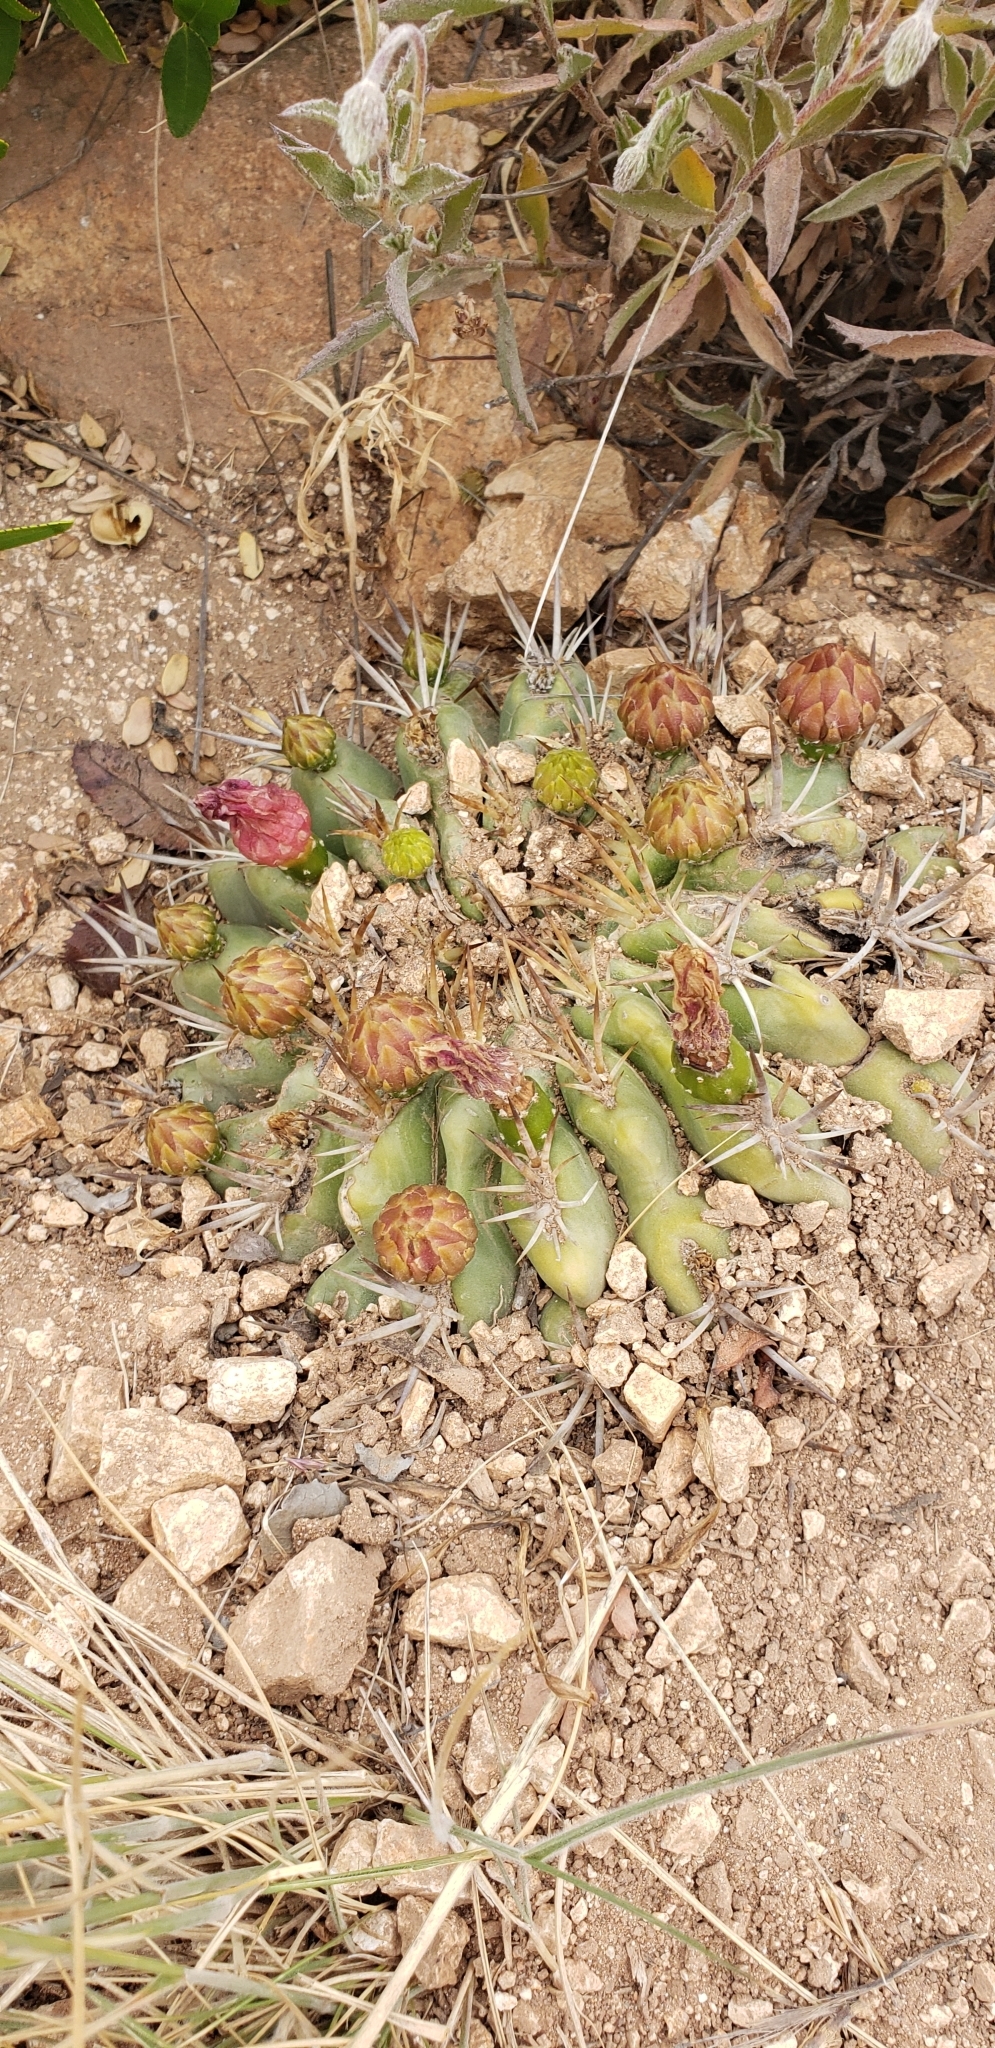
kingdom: Plantae
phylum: Tracheophyta
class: Magnoliopsida
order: Caryophyllales
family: Cactaceae
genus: Eriosyce
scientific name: Eriosyce
